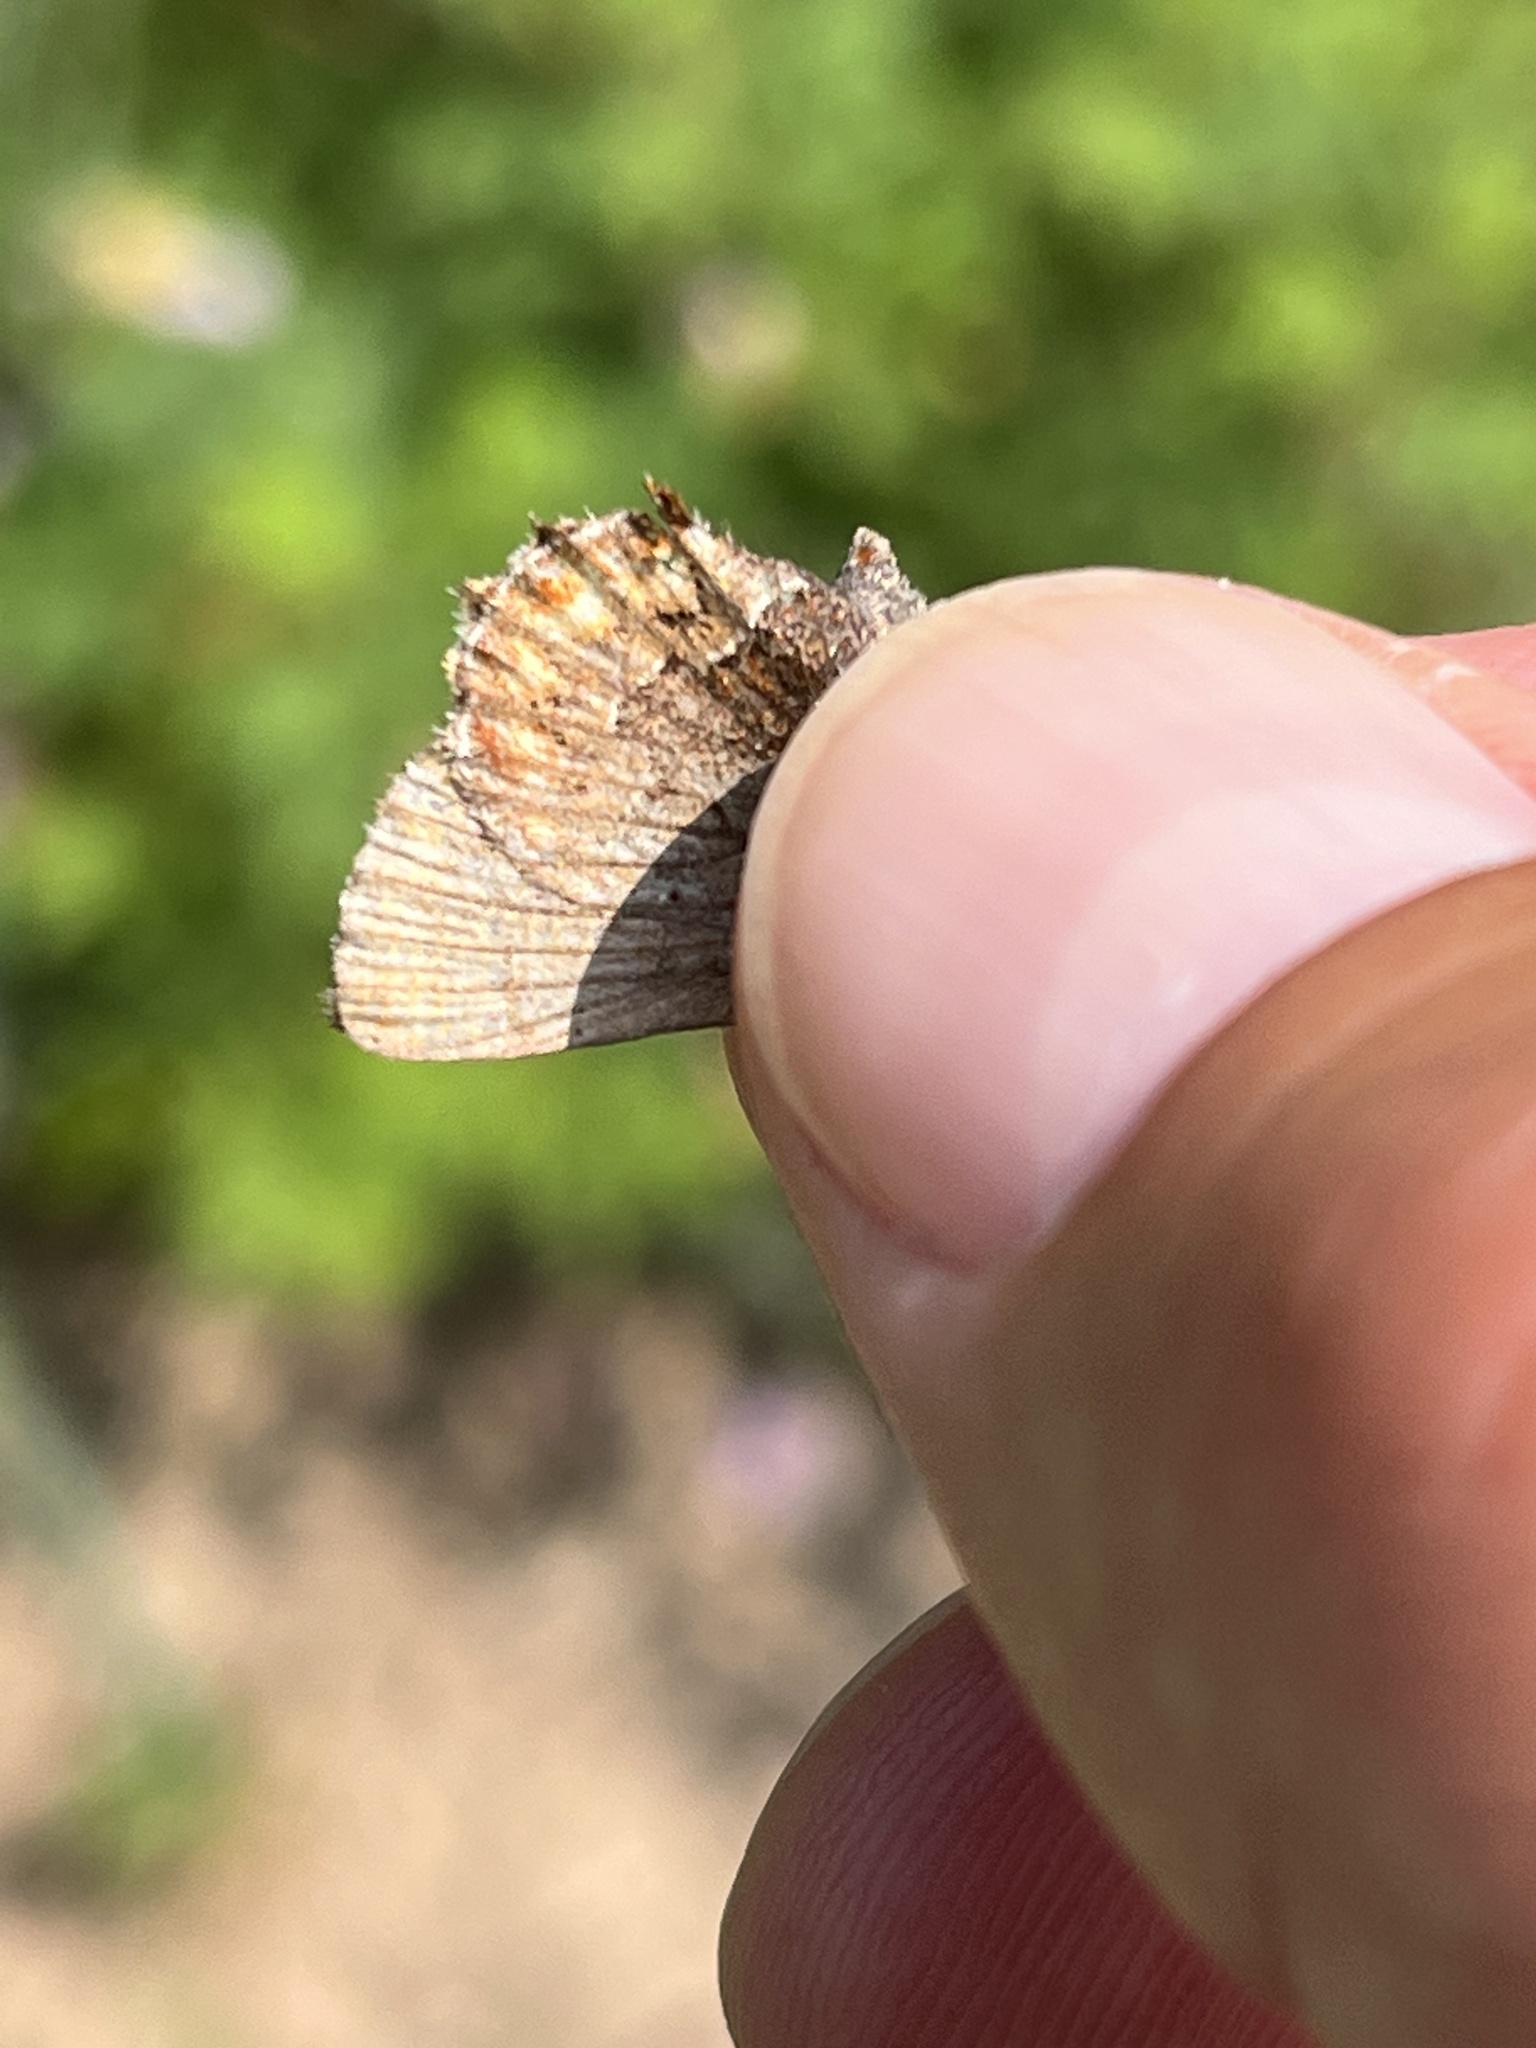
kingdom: Animalia
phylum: Arthropoda
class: Insecta
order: Lepidoptera
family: Lycaenidae
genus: Incisalia
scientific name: Incisalia eryphon
